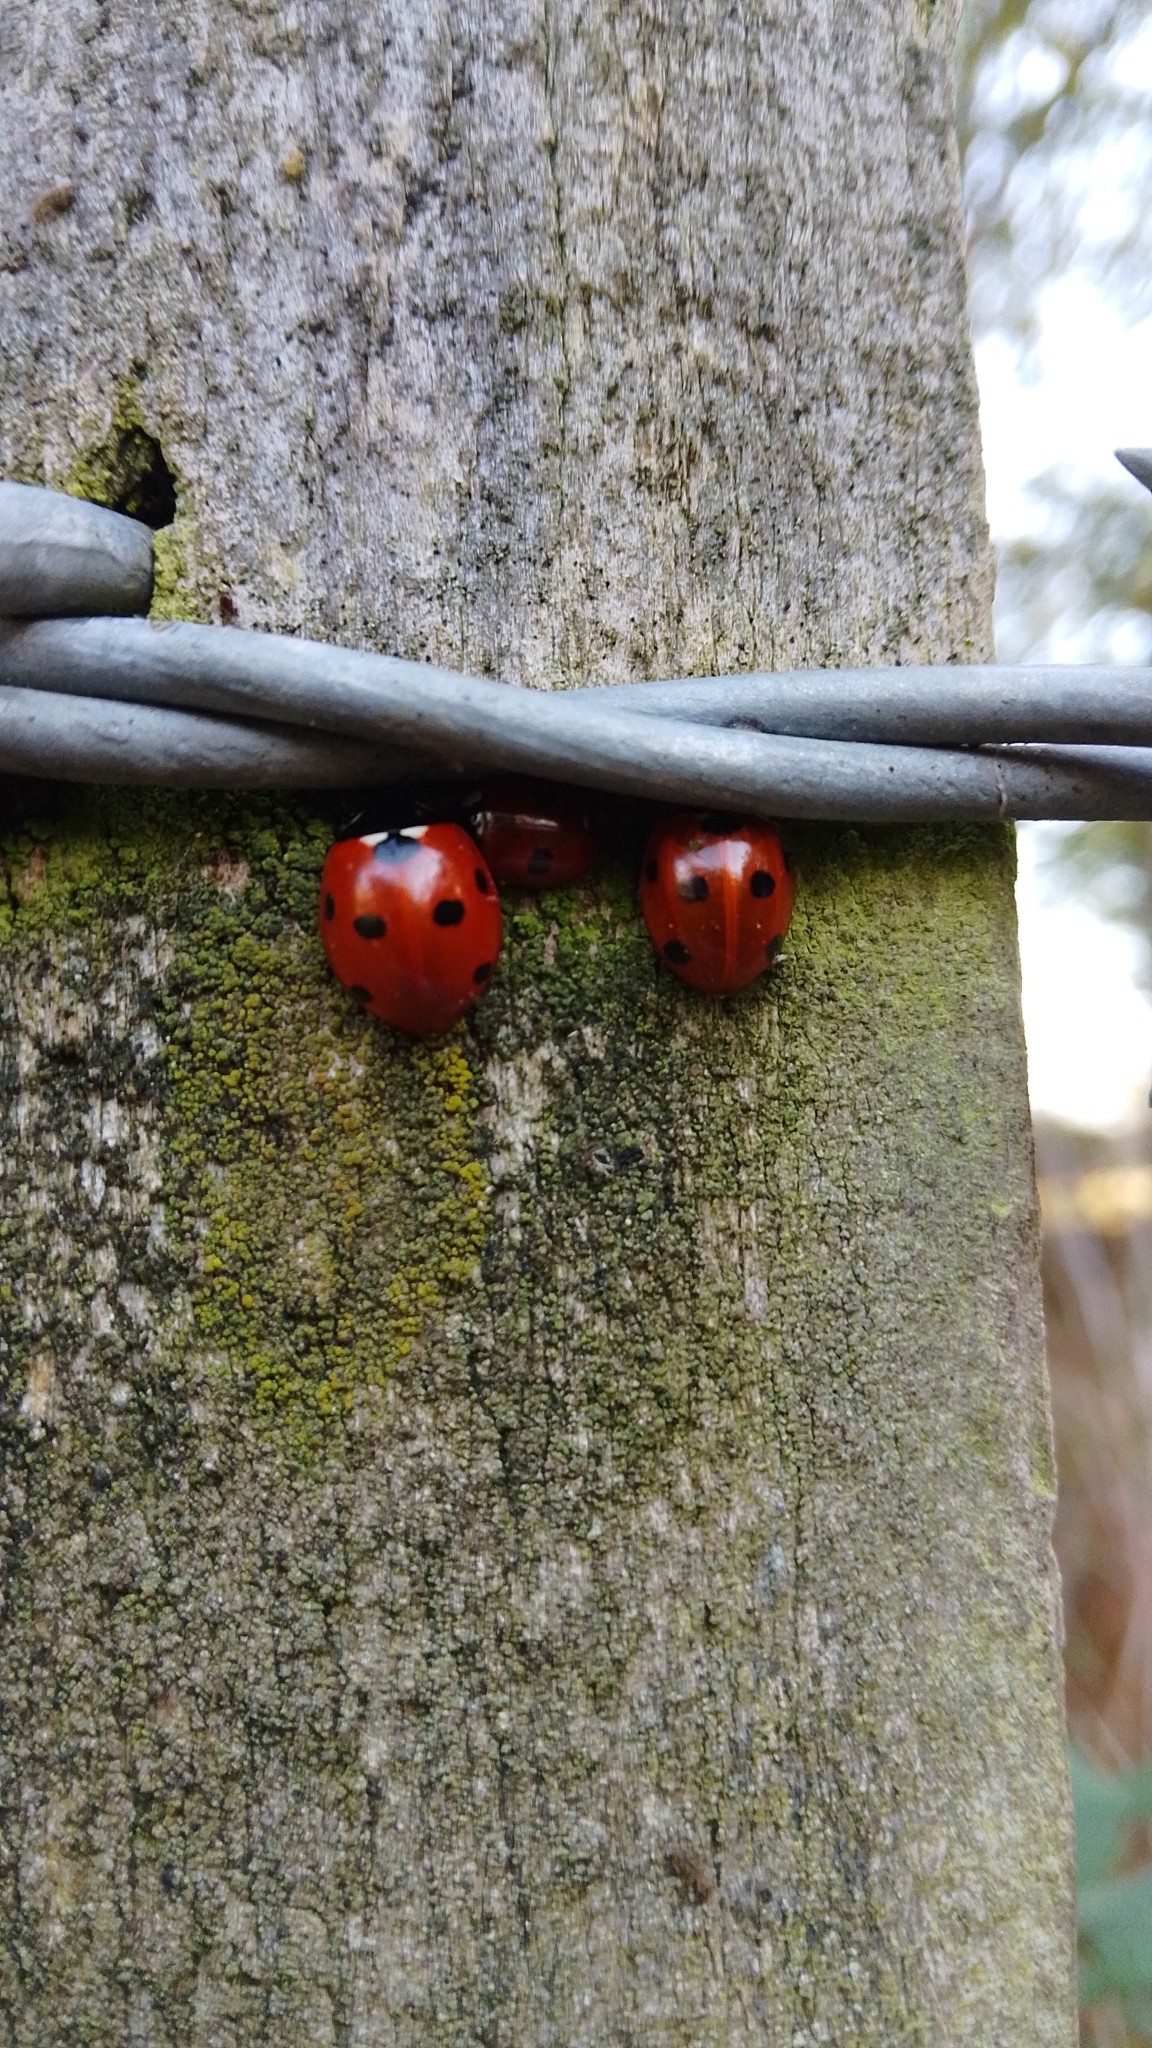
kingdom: Animalia
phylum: Arthropoda
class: Insecta
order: Coleoptera
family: Coccinellidae
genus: Coccinella
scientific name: Coccinella septempunctata
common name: Sevenspotted lady beetle
